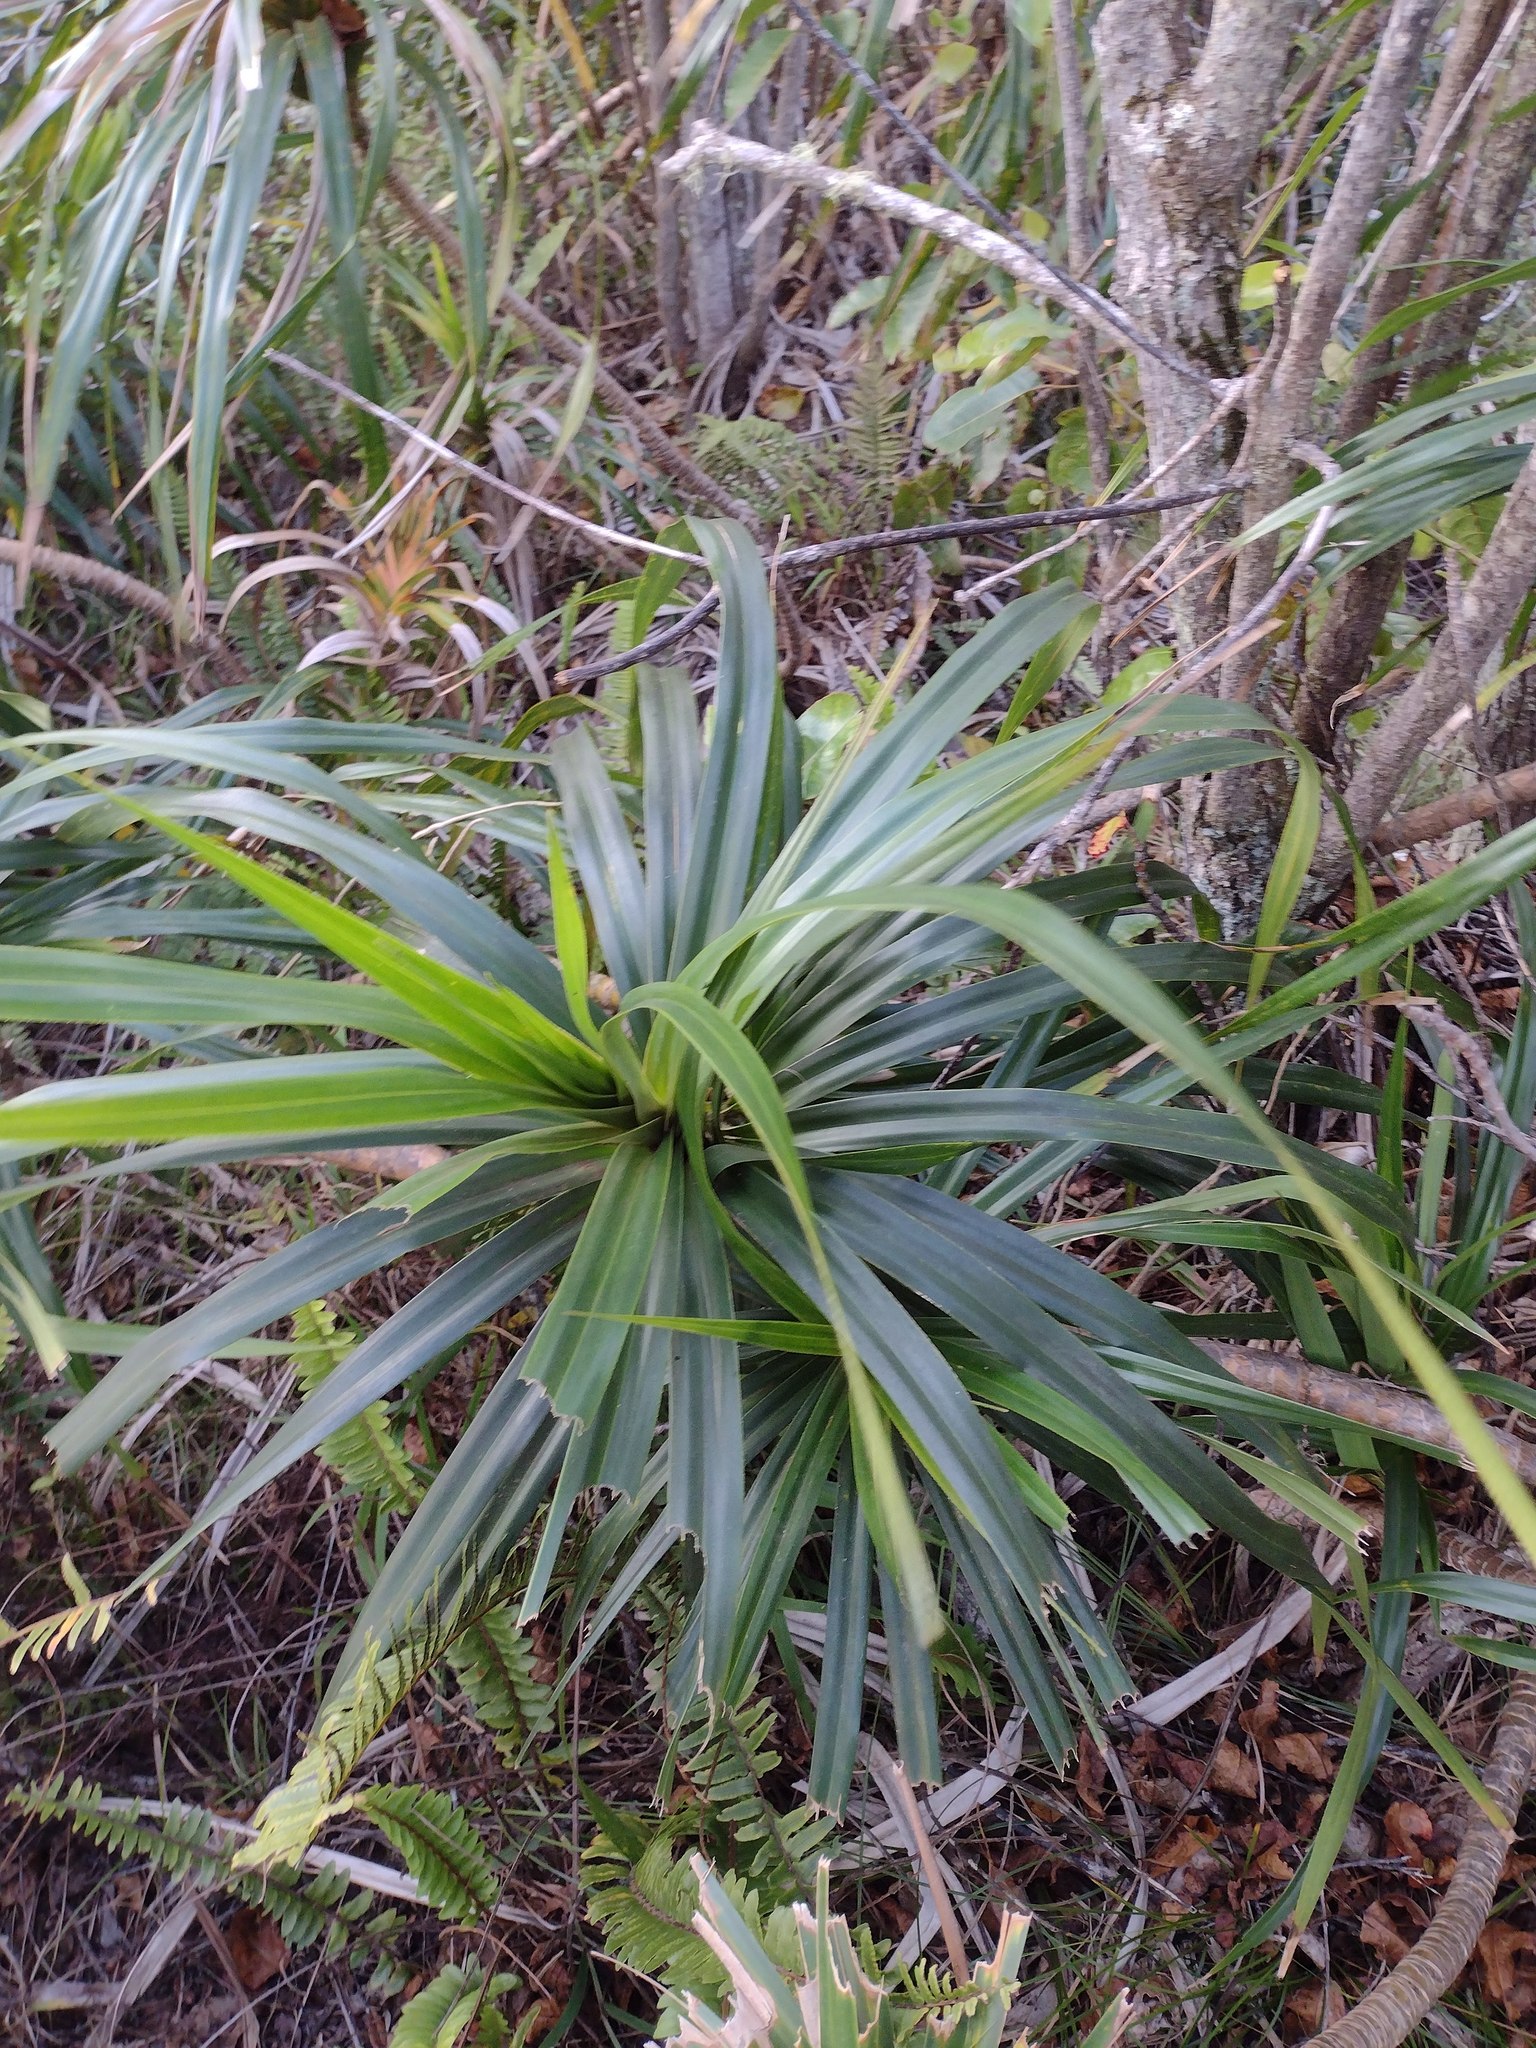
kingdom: Plantae
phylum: Tracheophyta
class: Liliopsida
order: Pandanales
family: Pandanaceae
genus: Freycinetia
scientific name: Freycinetia arborea
